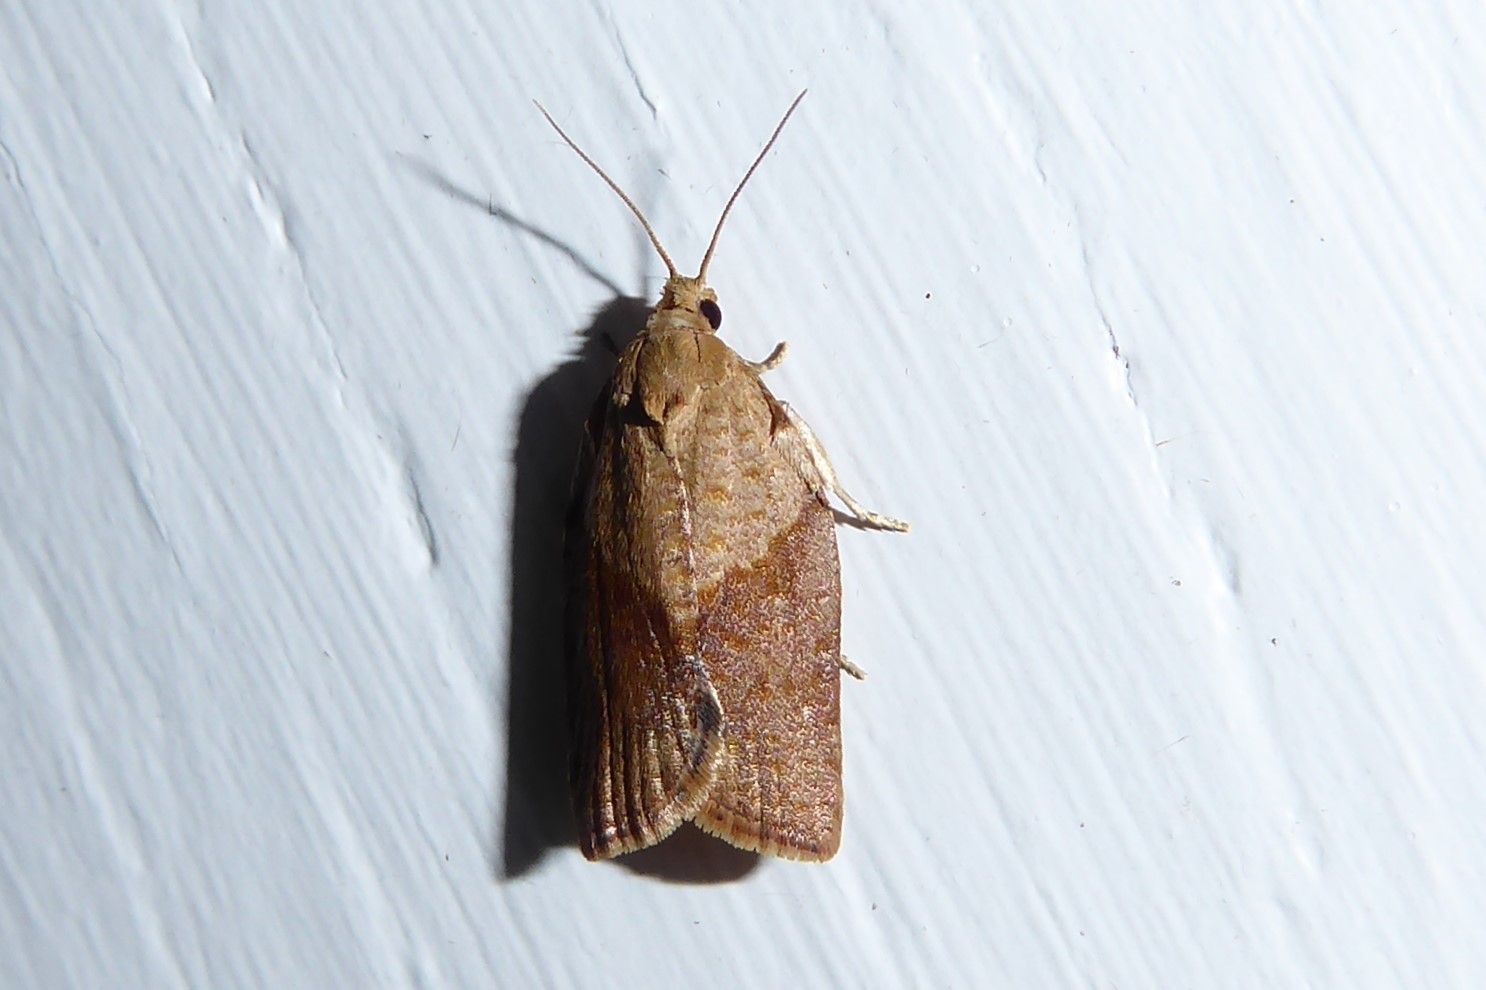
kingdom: Animalia
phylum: Arthropoda
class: Insecta
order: Lepidoptera
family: Tortricidae
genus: Epiphyas
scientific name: Epiphyas postvittana
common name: Light brown apple moth
